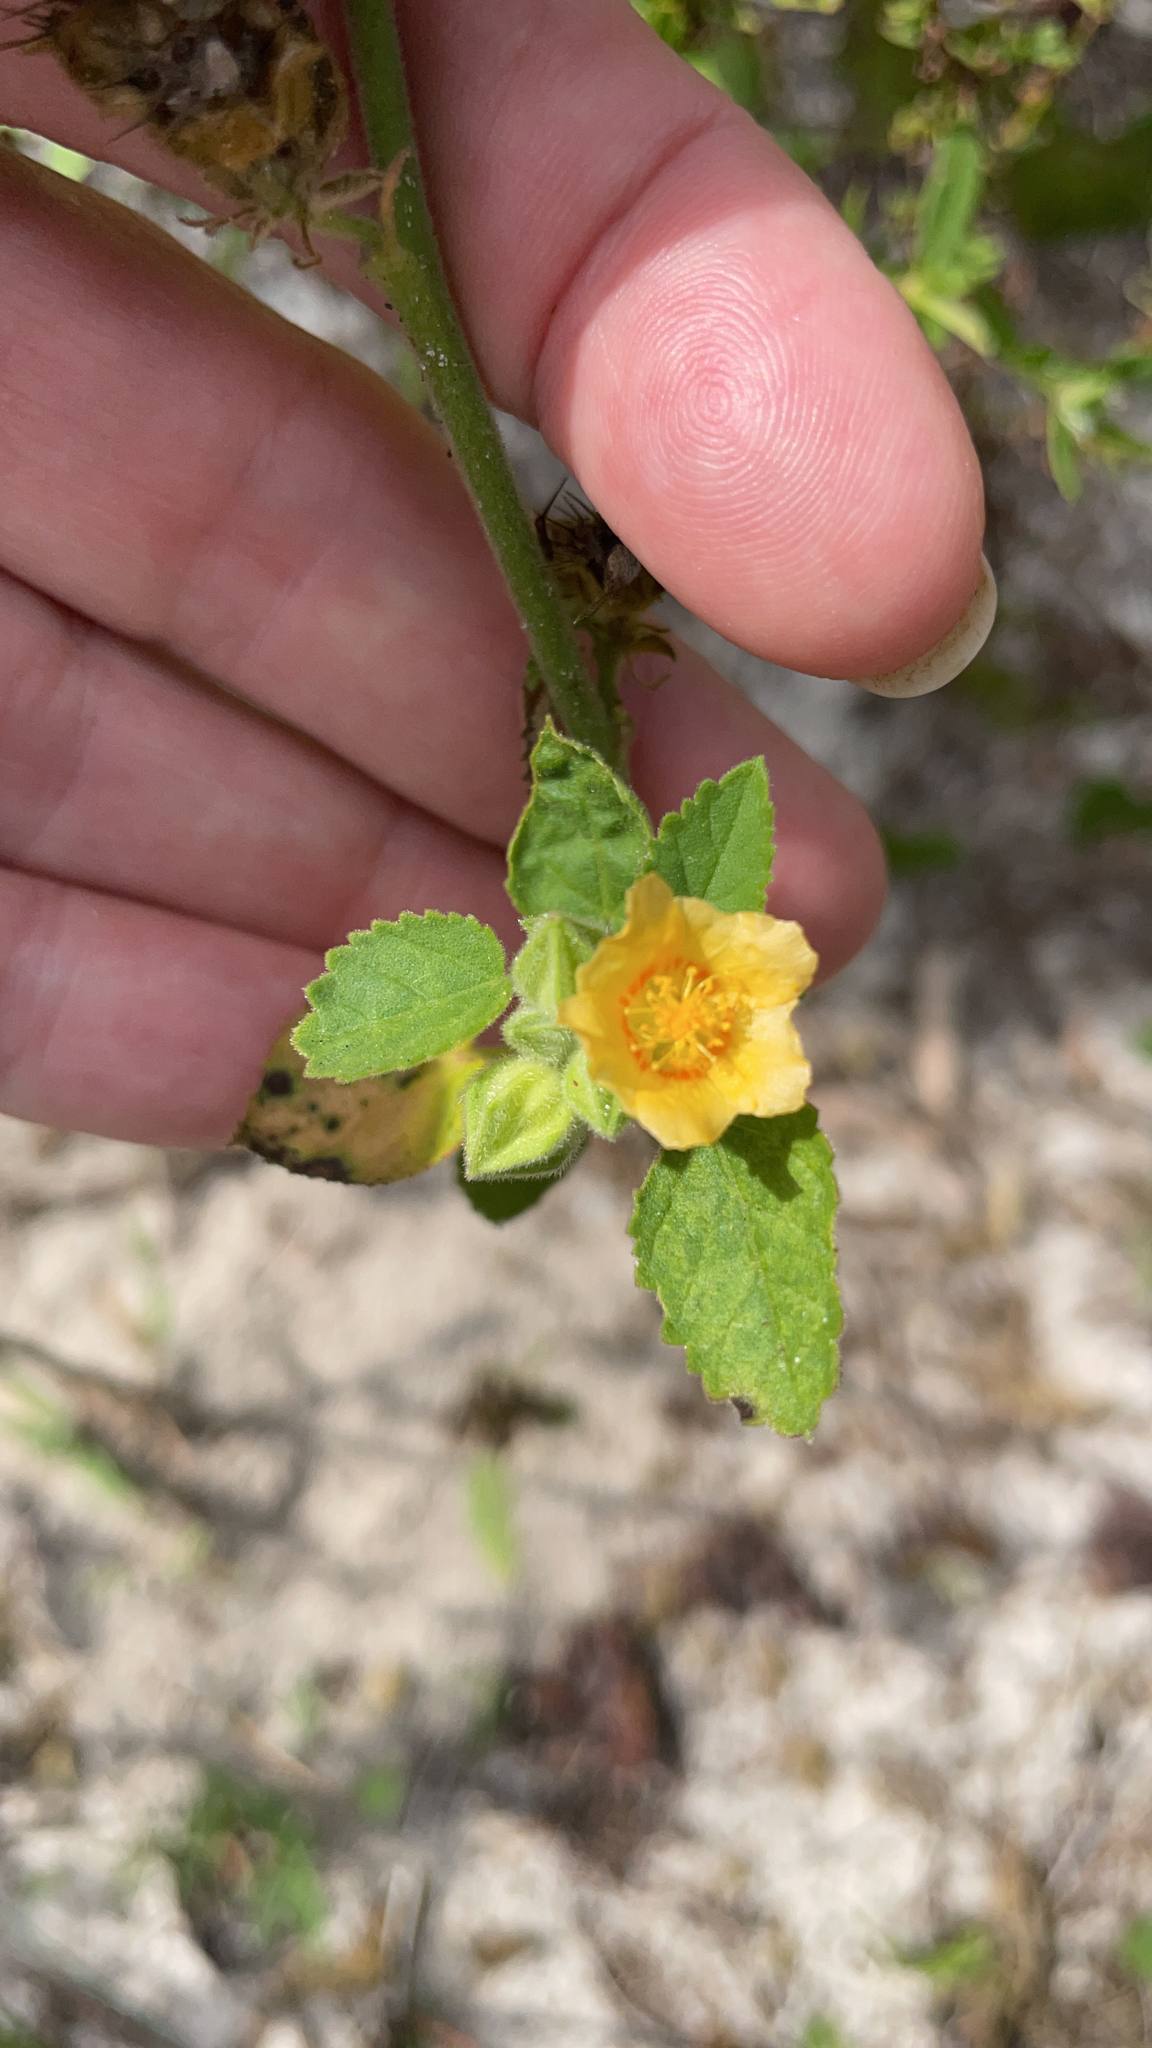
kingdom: Plantae
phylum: Tracheophyta
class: Magnoliopsida
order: Malvales
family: Malvaceae
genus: Sida
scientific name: Sida cordifolia
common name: Ilima
